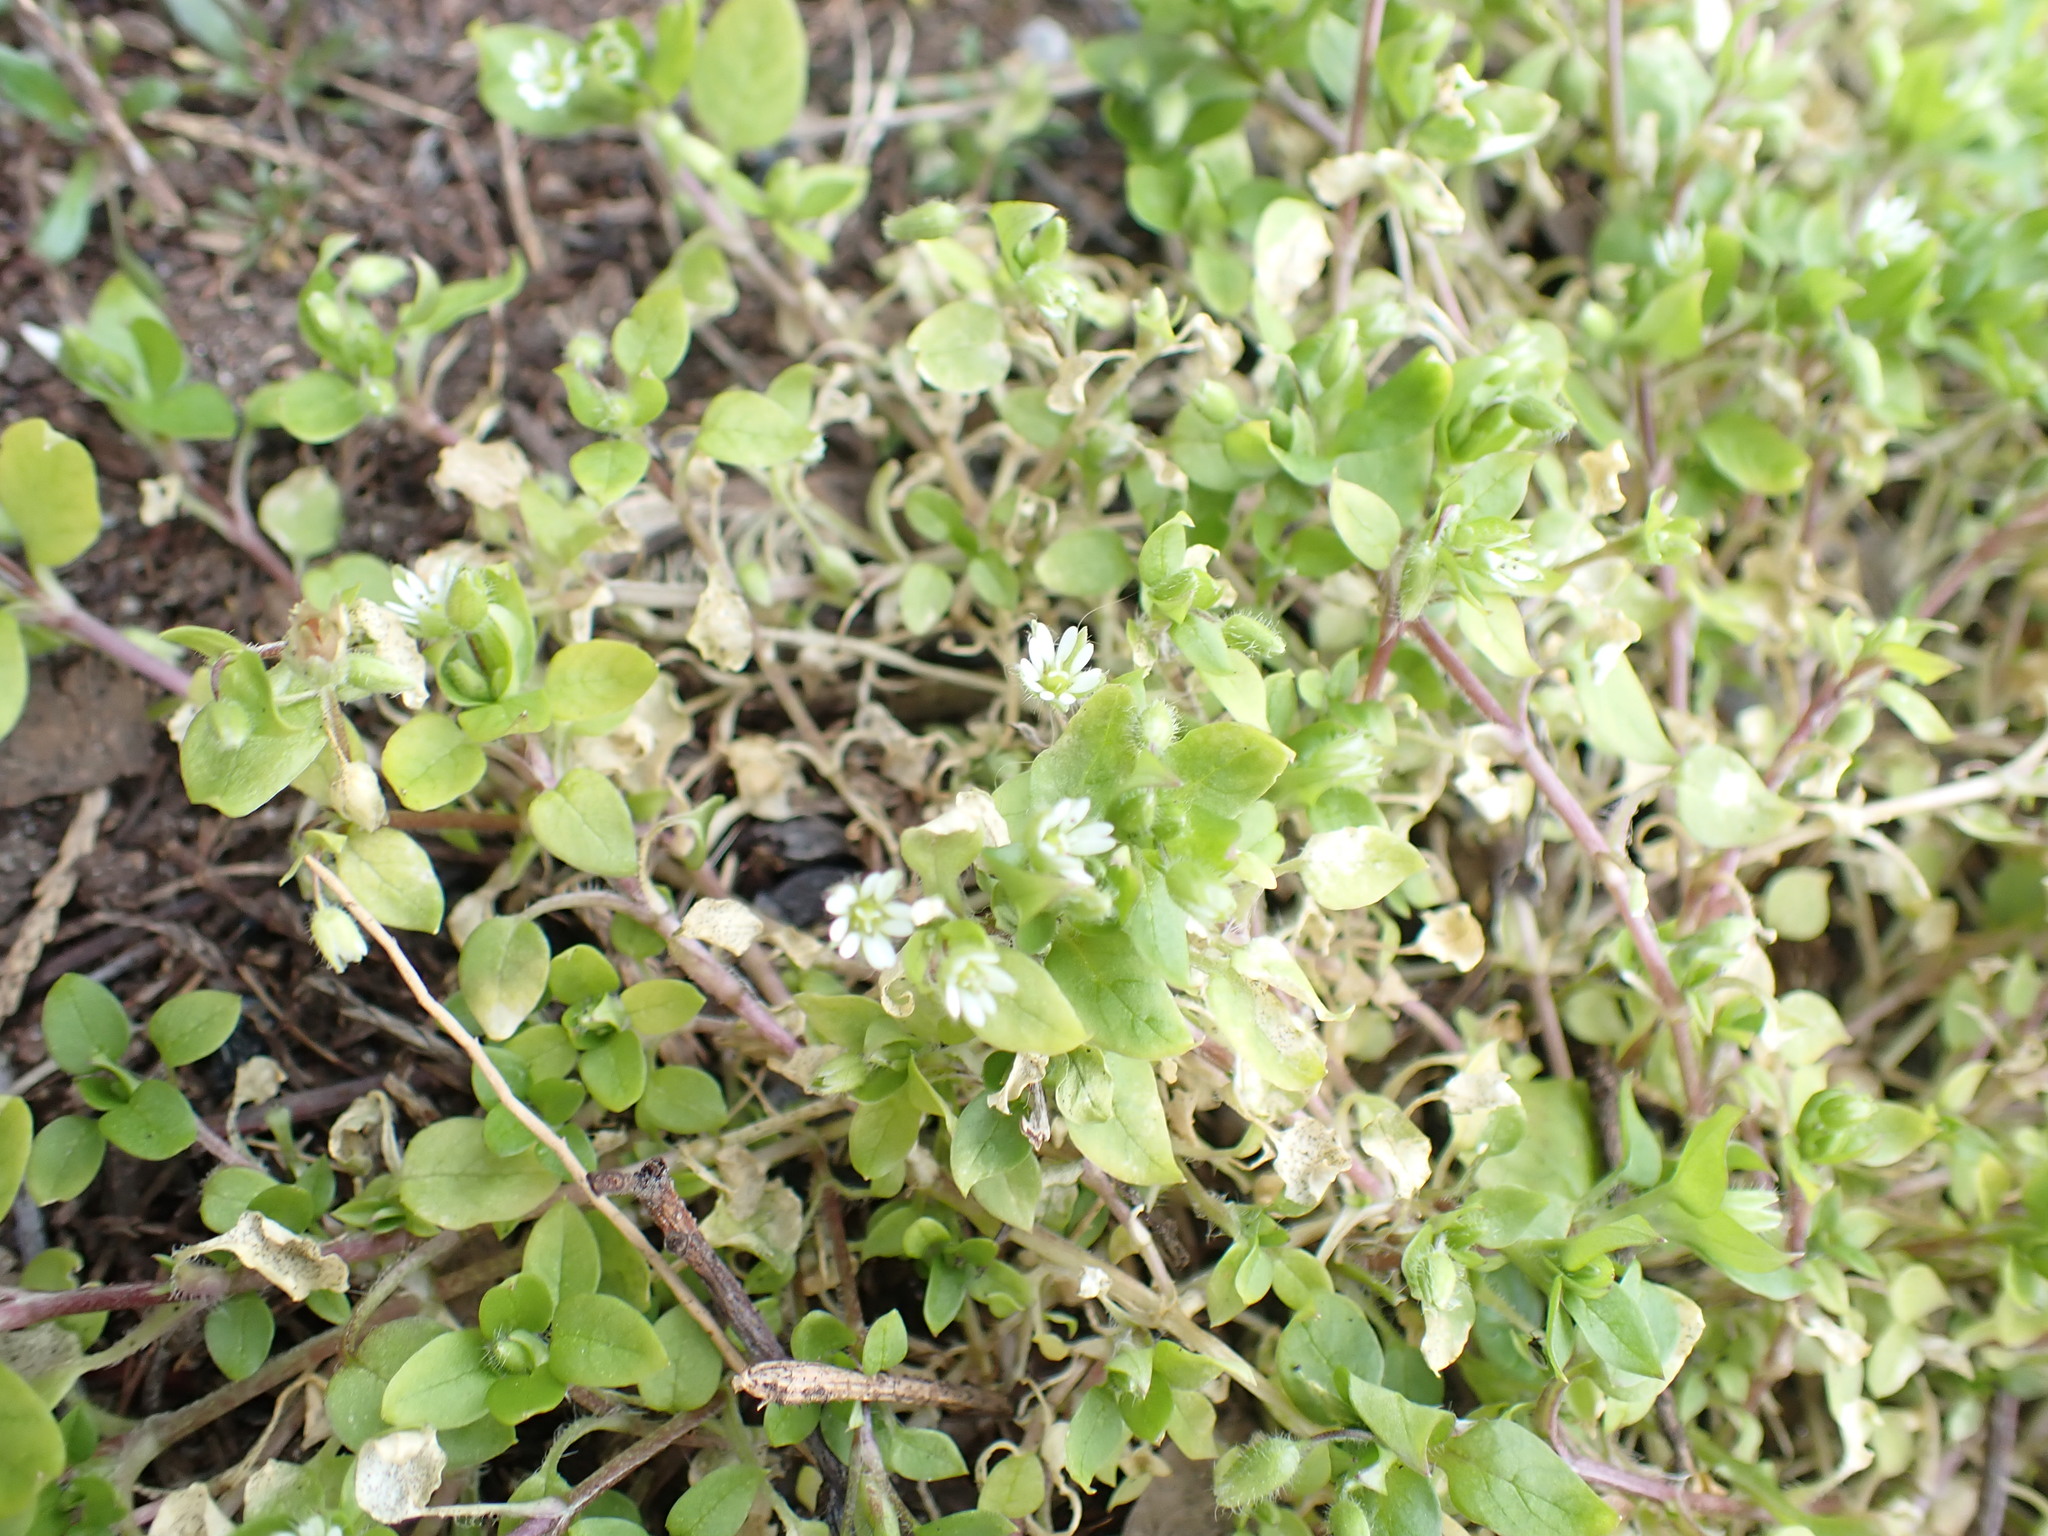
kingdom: Plantae
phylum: Tracheophyta
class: Magnoliopsida
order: Caryophyllales
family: Caryophyllaceae
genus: Stellaria
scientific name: Stellaria media
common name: Common chickweed
